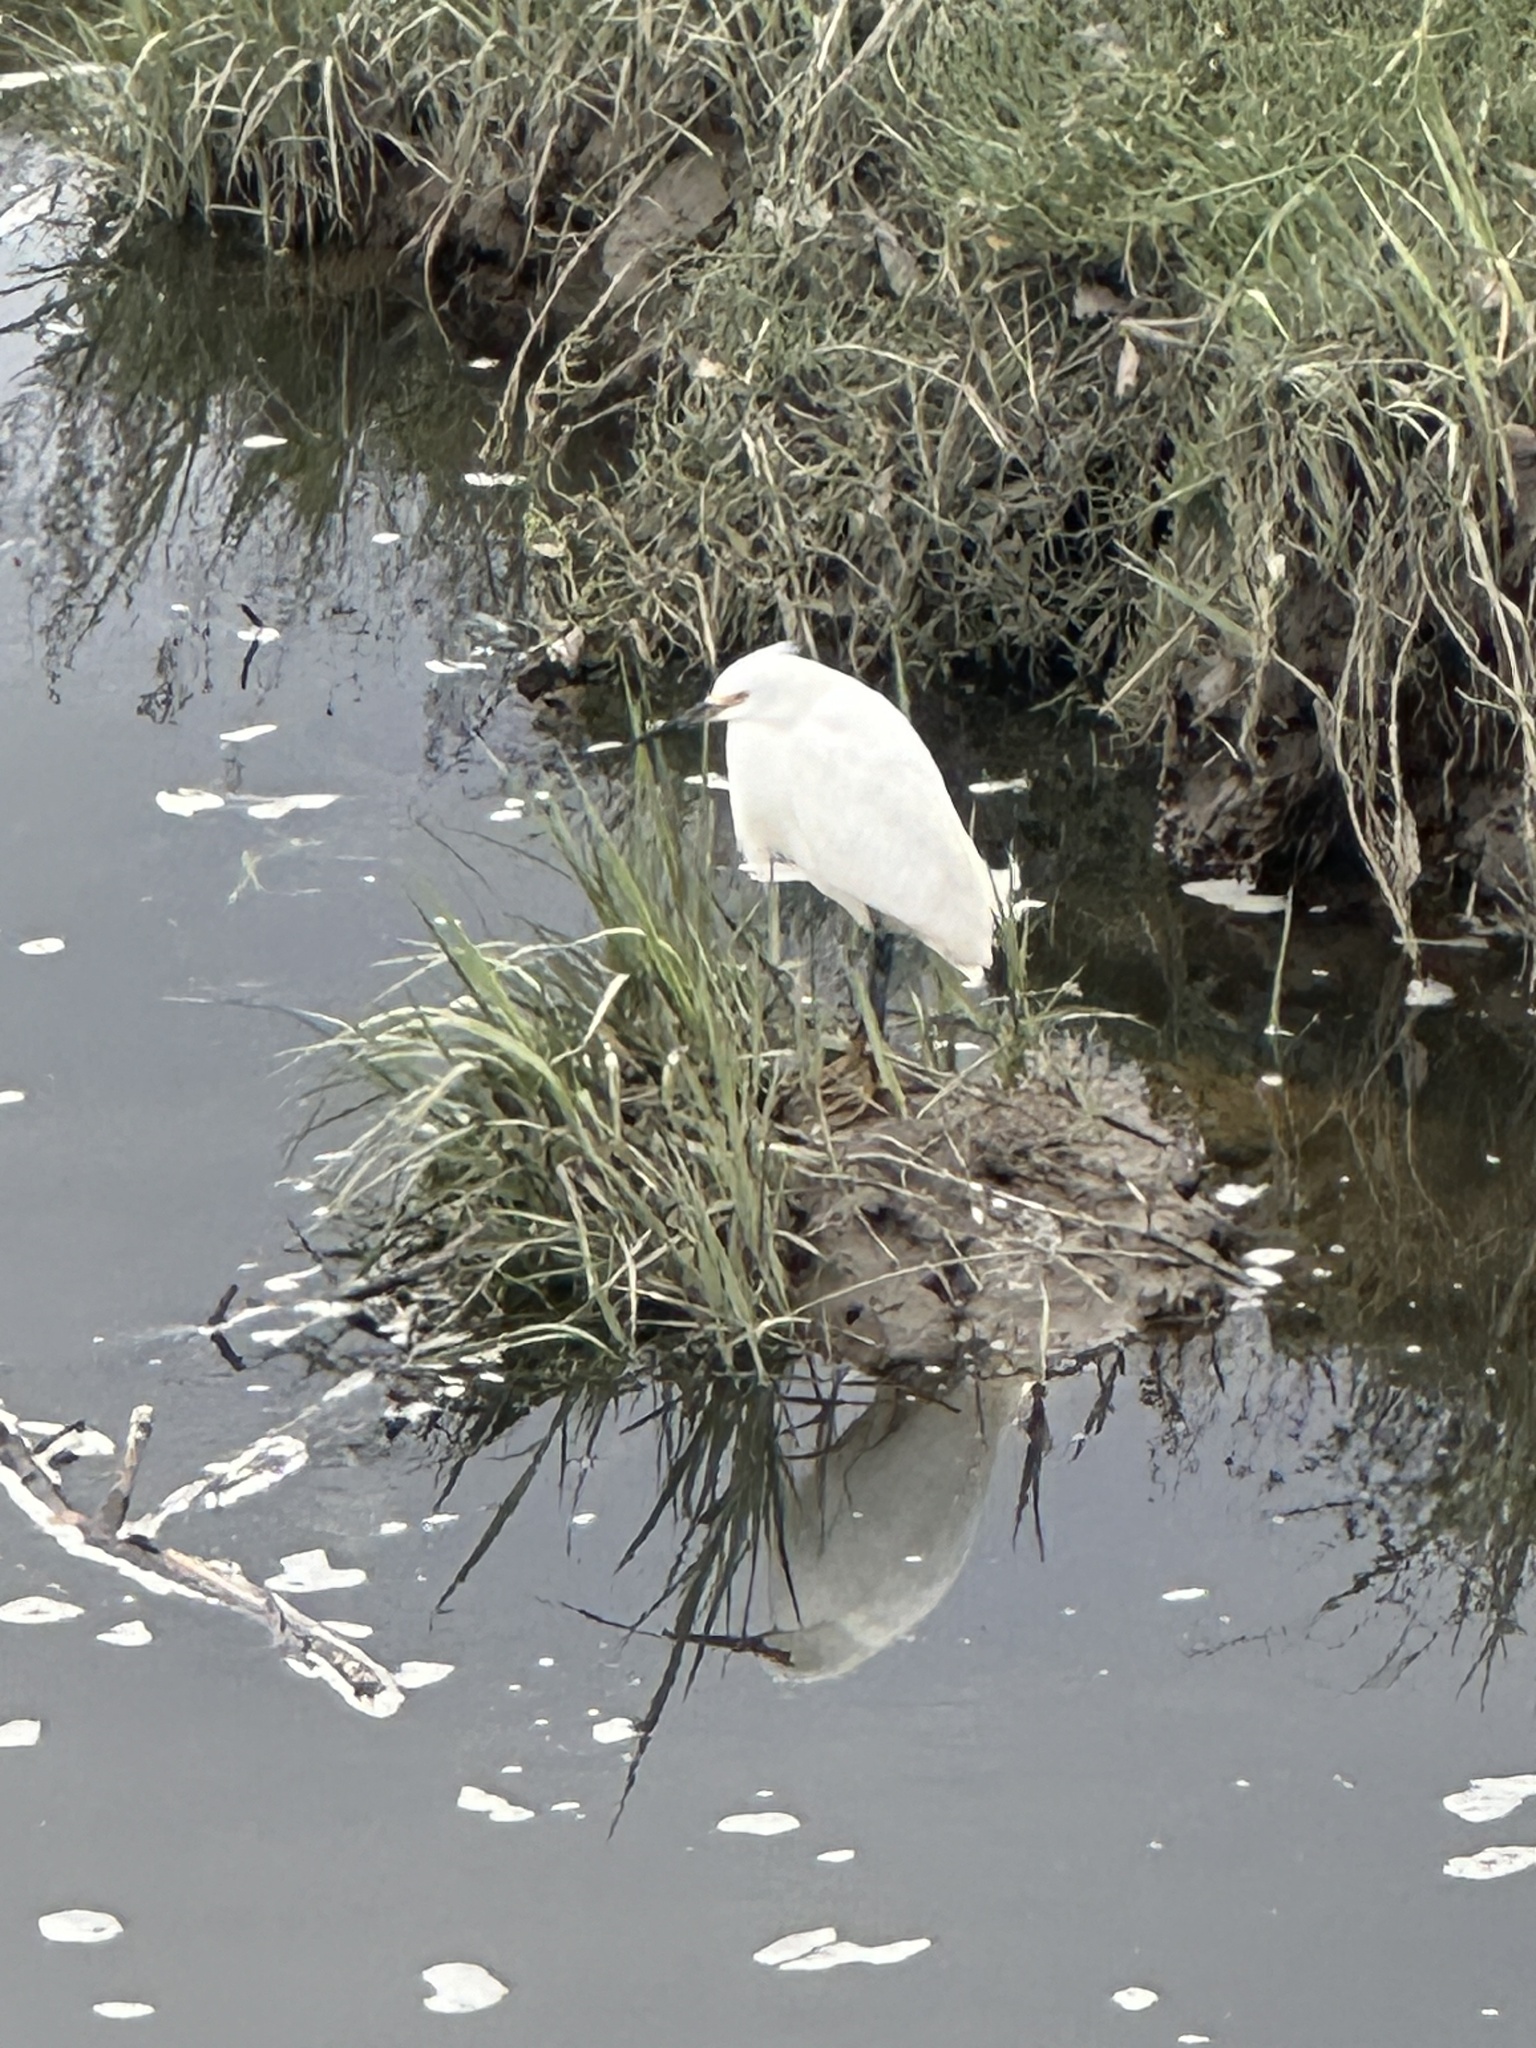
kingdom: Animalia
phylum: Chordata
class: Aves
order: Pelecaniformes
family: Ardeidae
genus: Egretta
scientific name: Egretta thula
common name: Snowy egret
